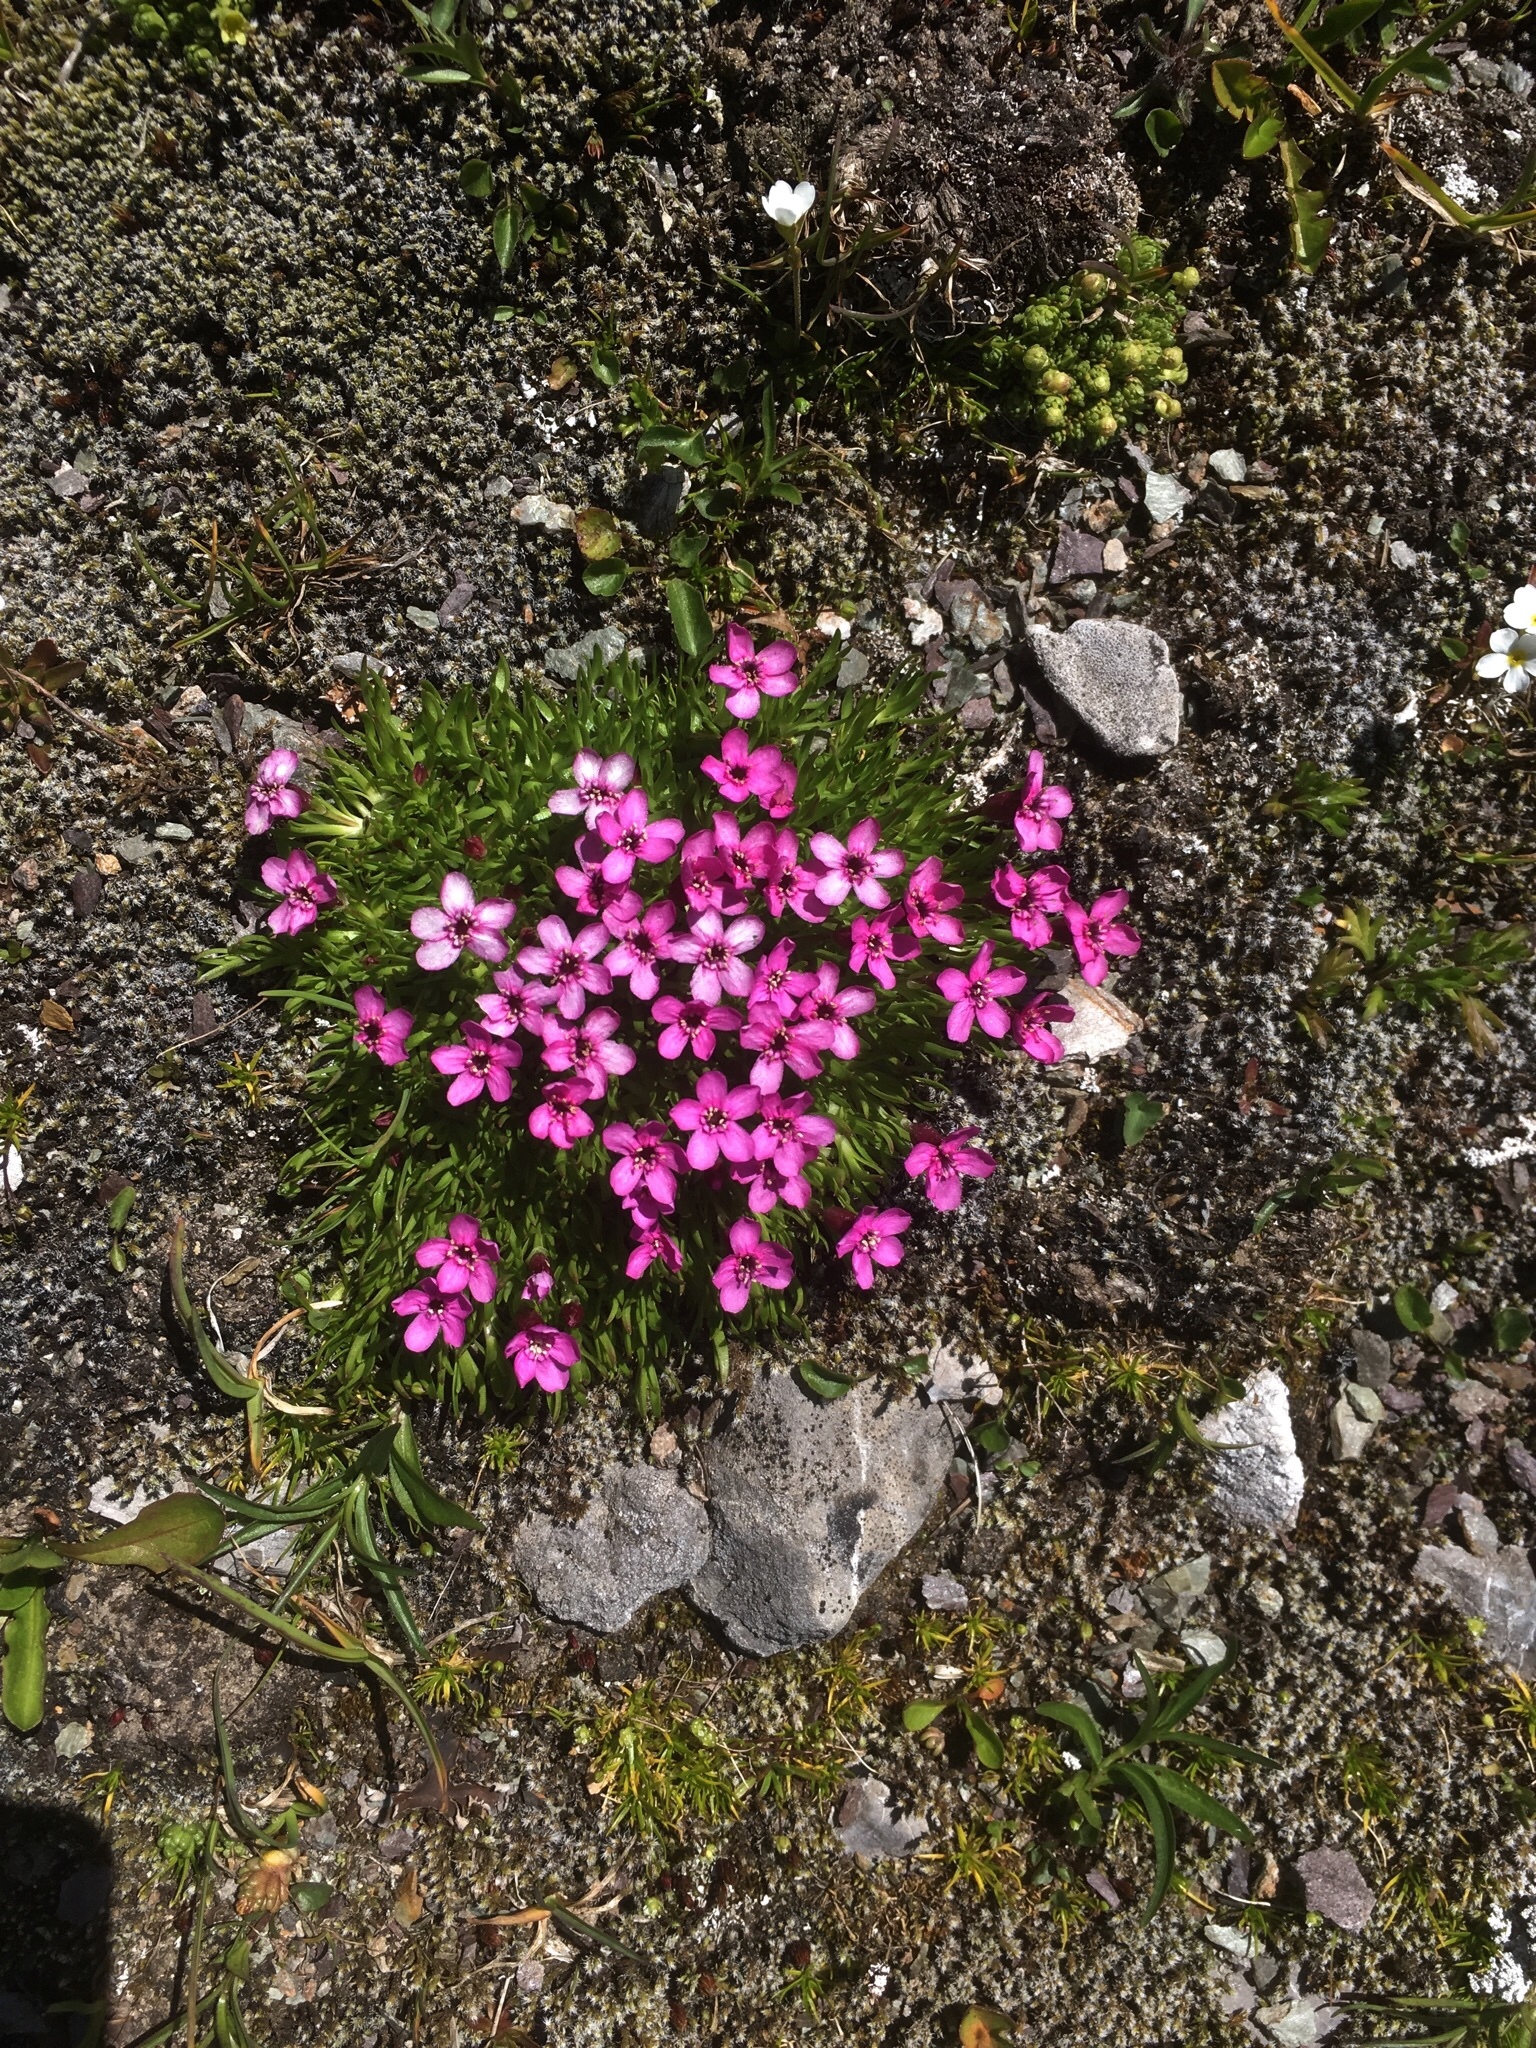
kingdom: Plantae
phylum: Tracheophyta
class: Magnoliopsida
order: Caryophyllales
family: Caryophyllaceae
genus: Silene
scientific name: Silene acaulis
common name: Moss campion
